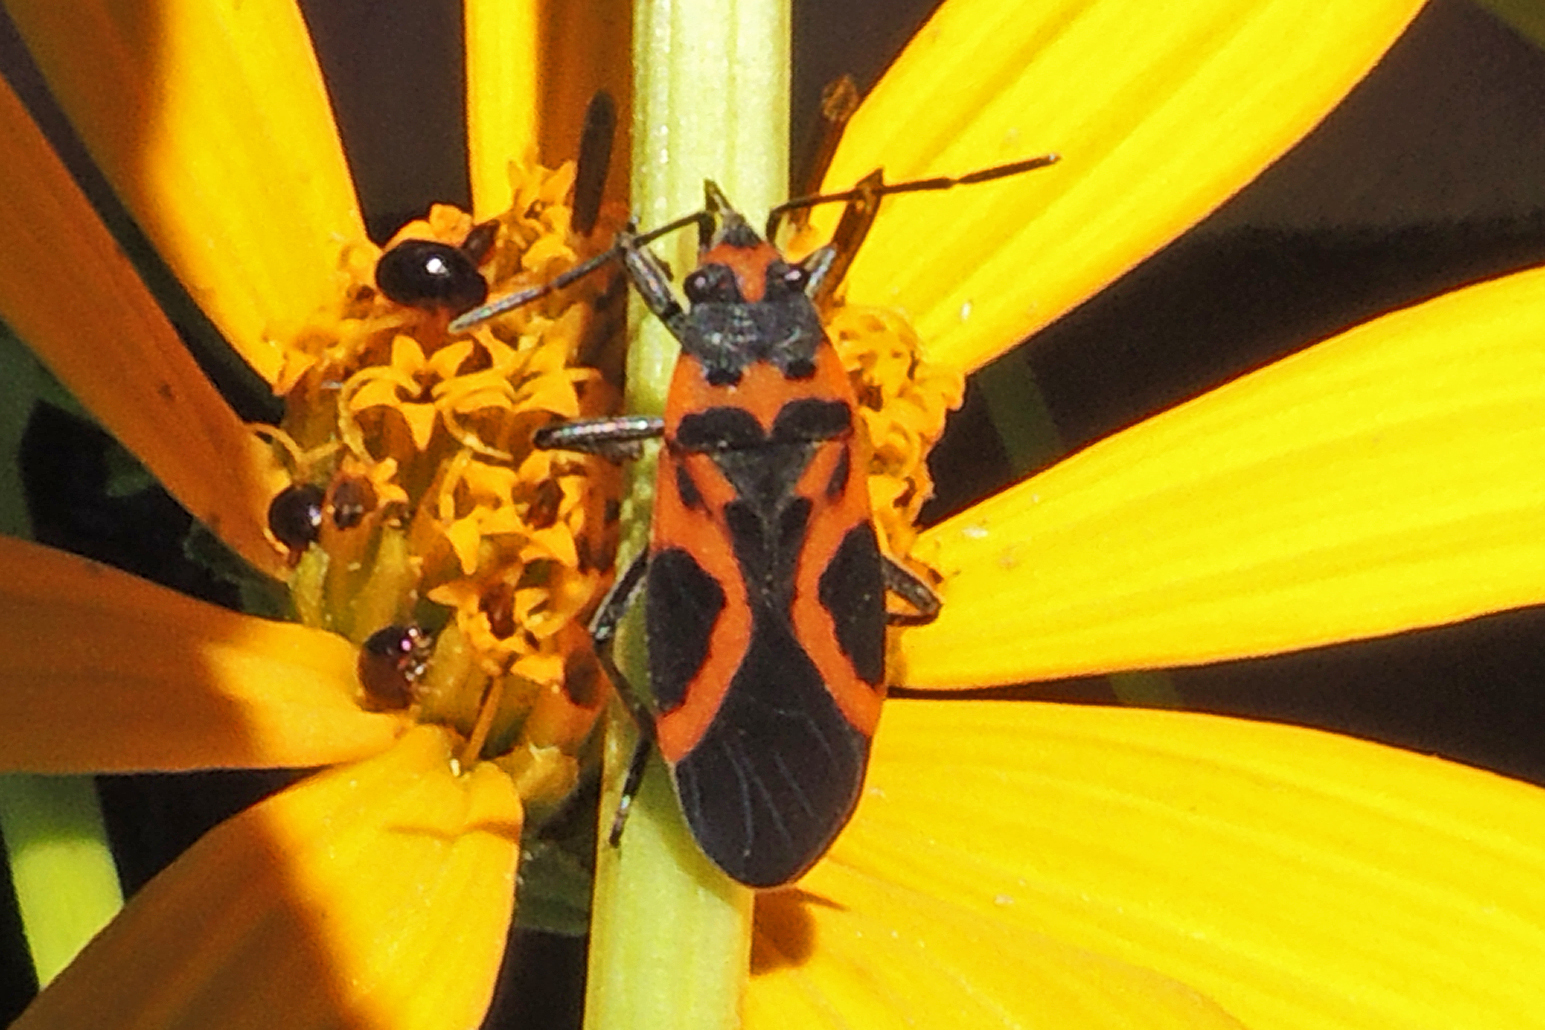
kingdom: Animalia
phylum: Arthropoda
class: Insecta
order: Hemiptera
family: Lygaeidae
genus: Lygaeus
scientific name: Lygaeus turcicus
